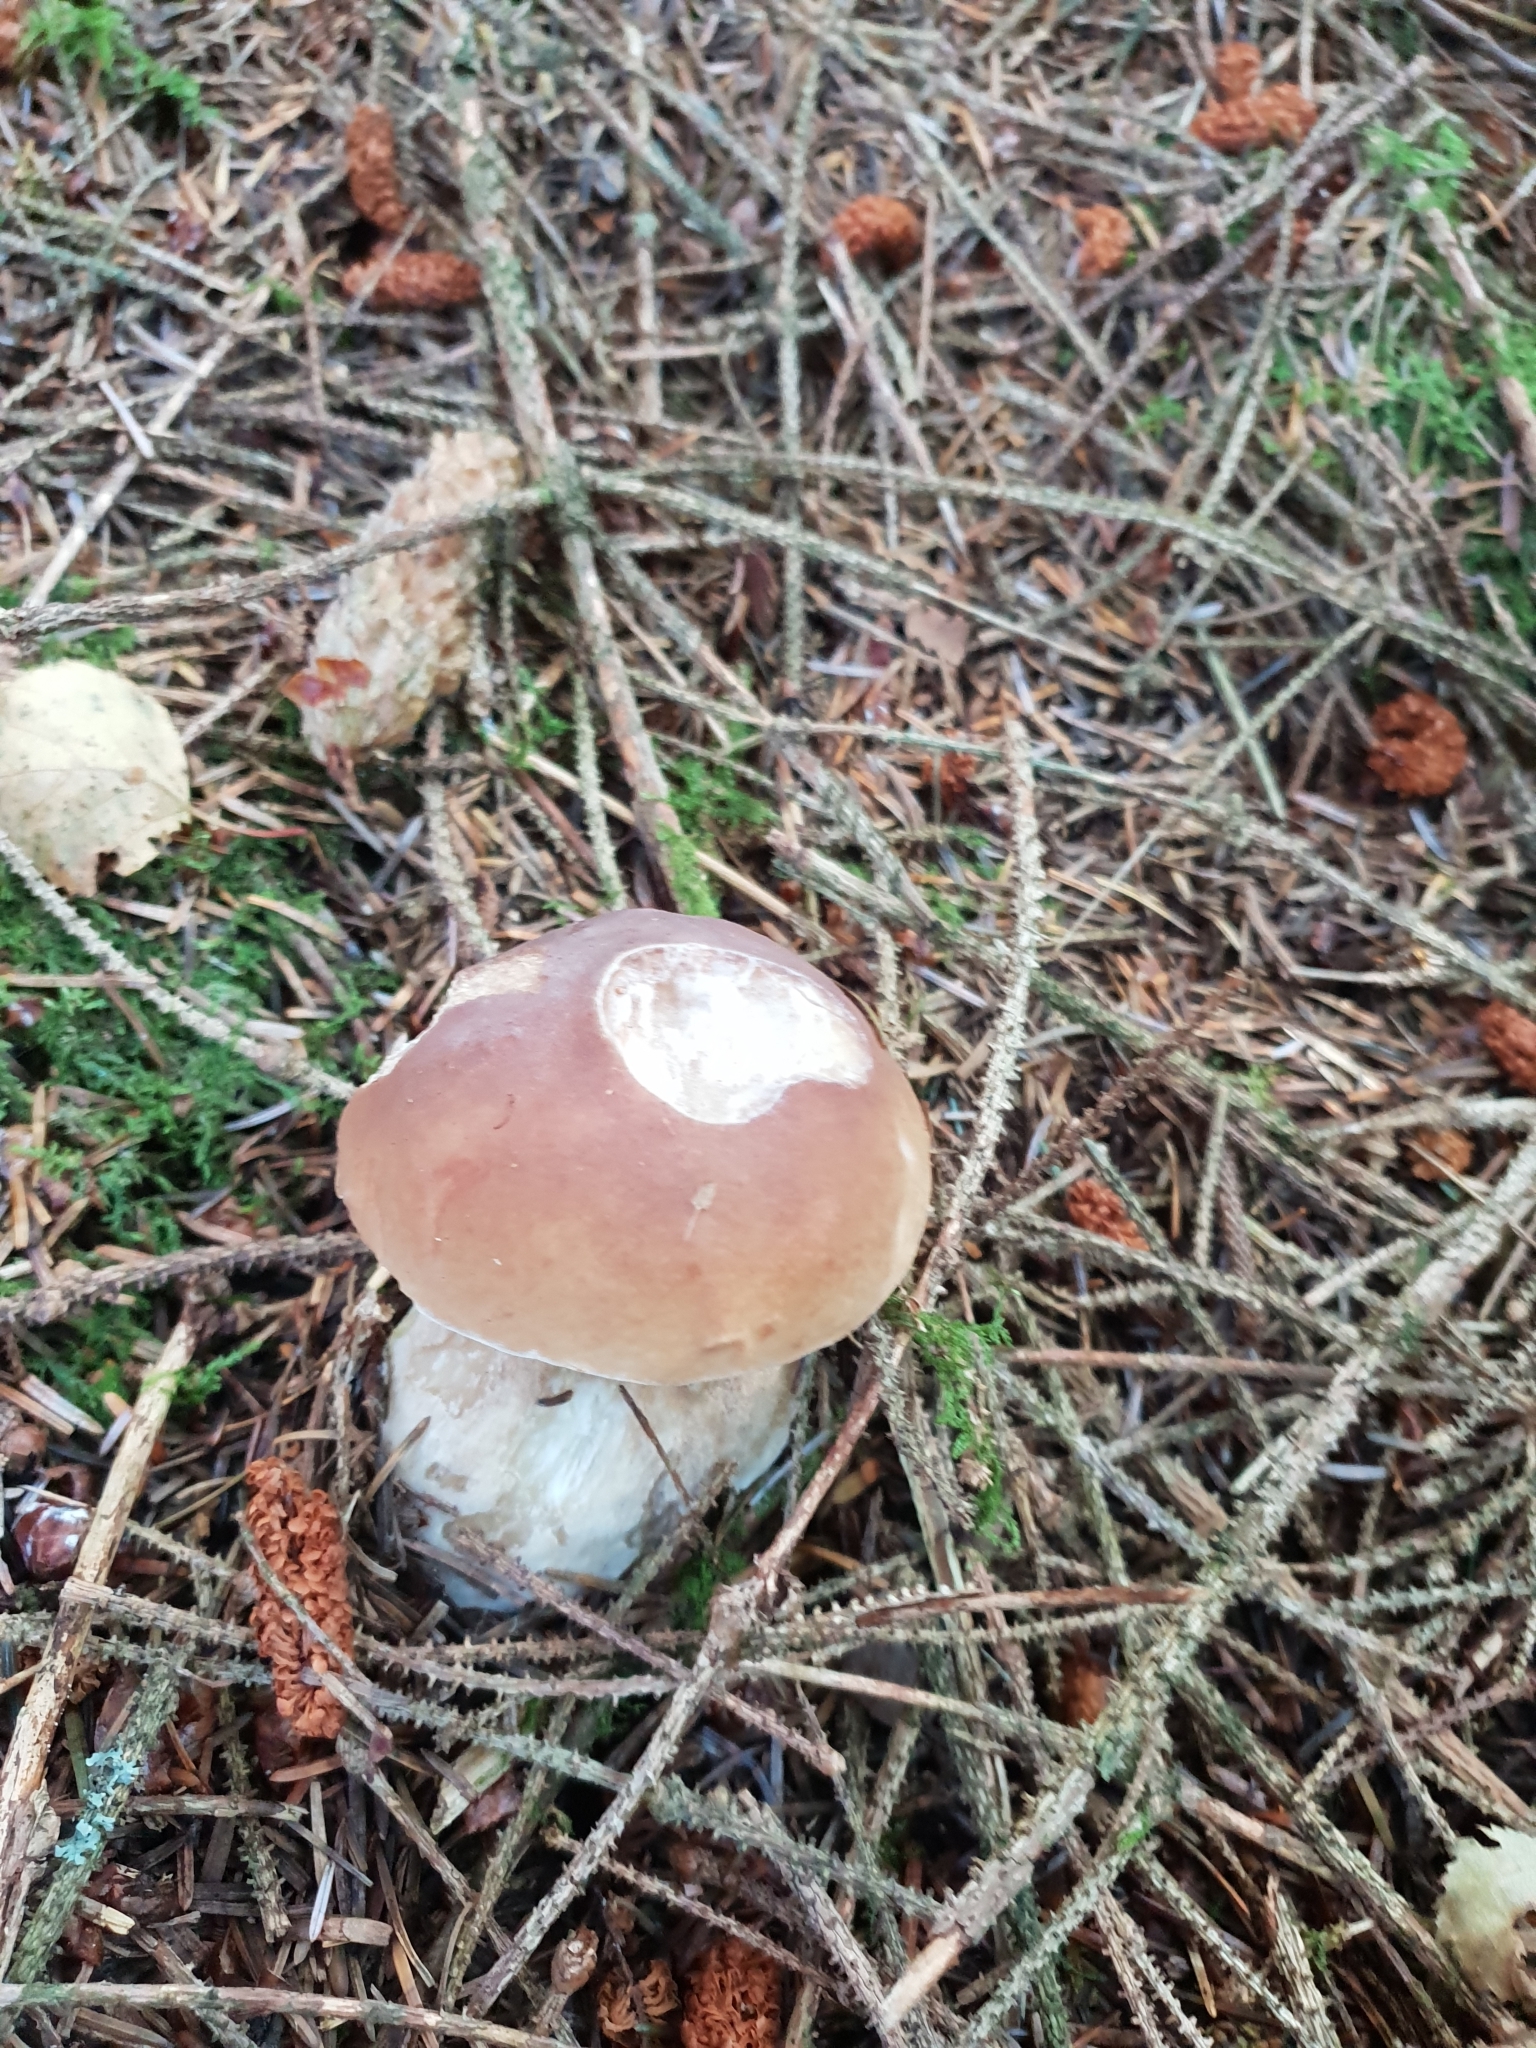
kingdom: Fungi
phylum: Basidiomycota
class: Agaricomycetes
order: Boletales
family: Boletaceae
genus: Boletus
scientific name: Boletus edulis
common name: Cep
